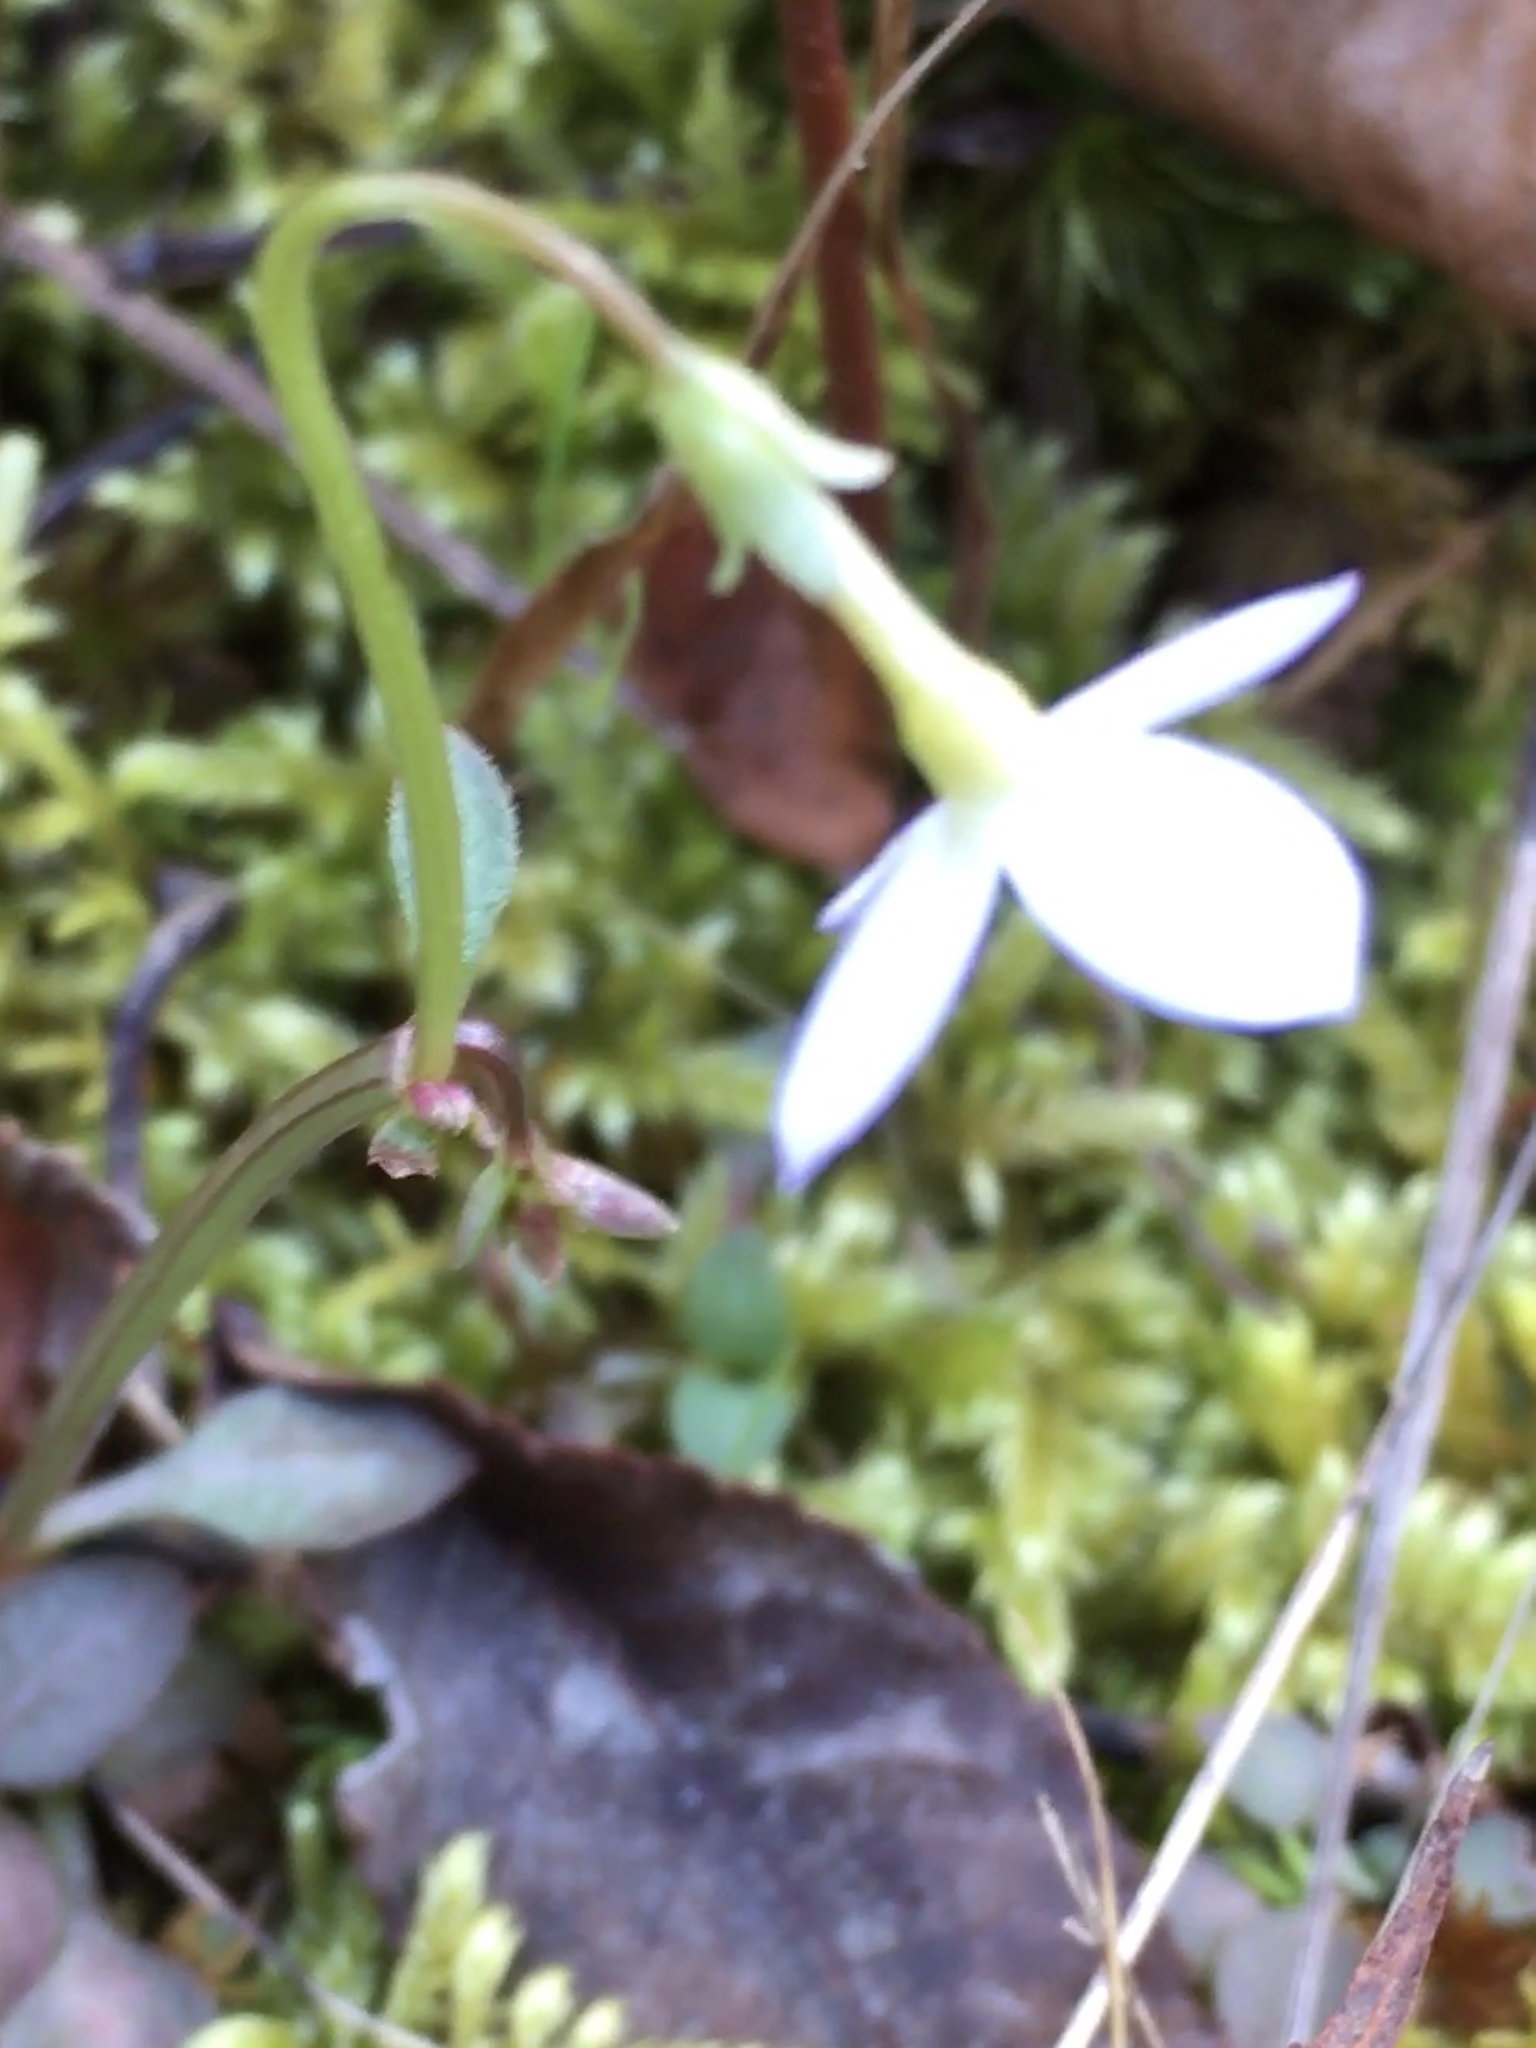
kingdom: Plantae
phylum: Tracheophyta
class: Magnoliopsida
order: Gentianales
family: Rubiaceae
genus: Houstonia
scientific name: Houstonia caerulea
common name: Bluets
